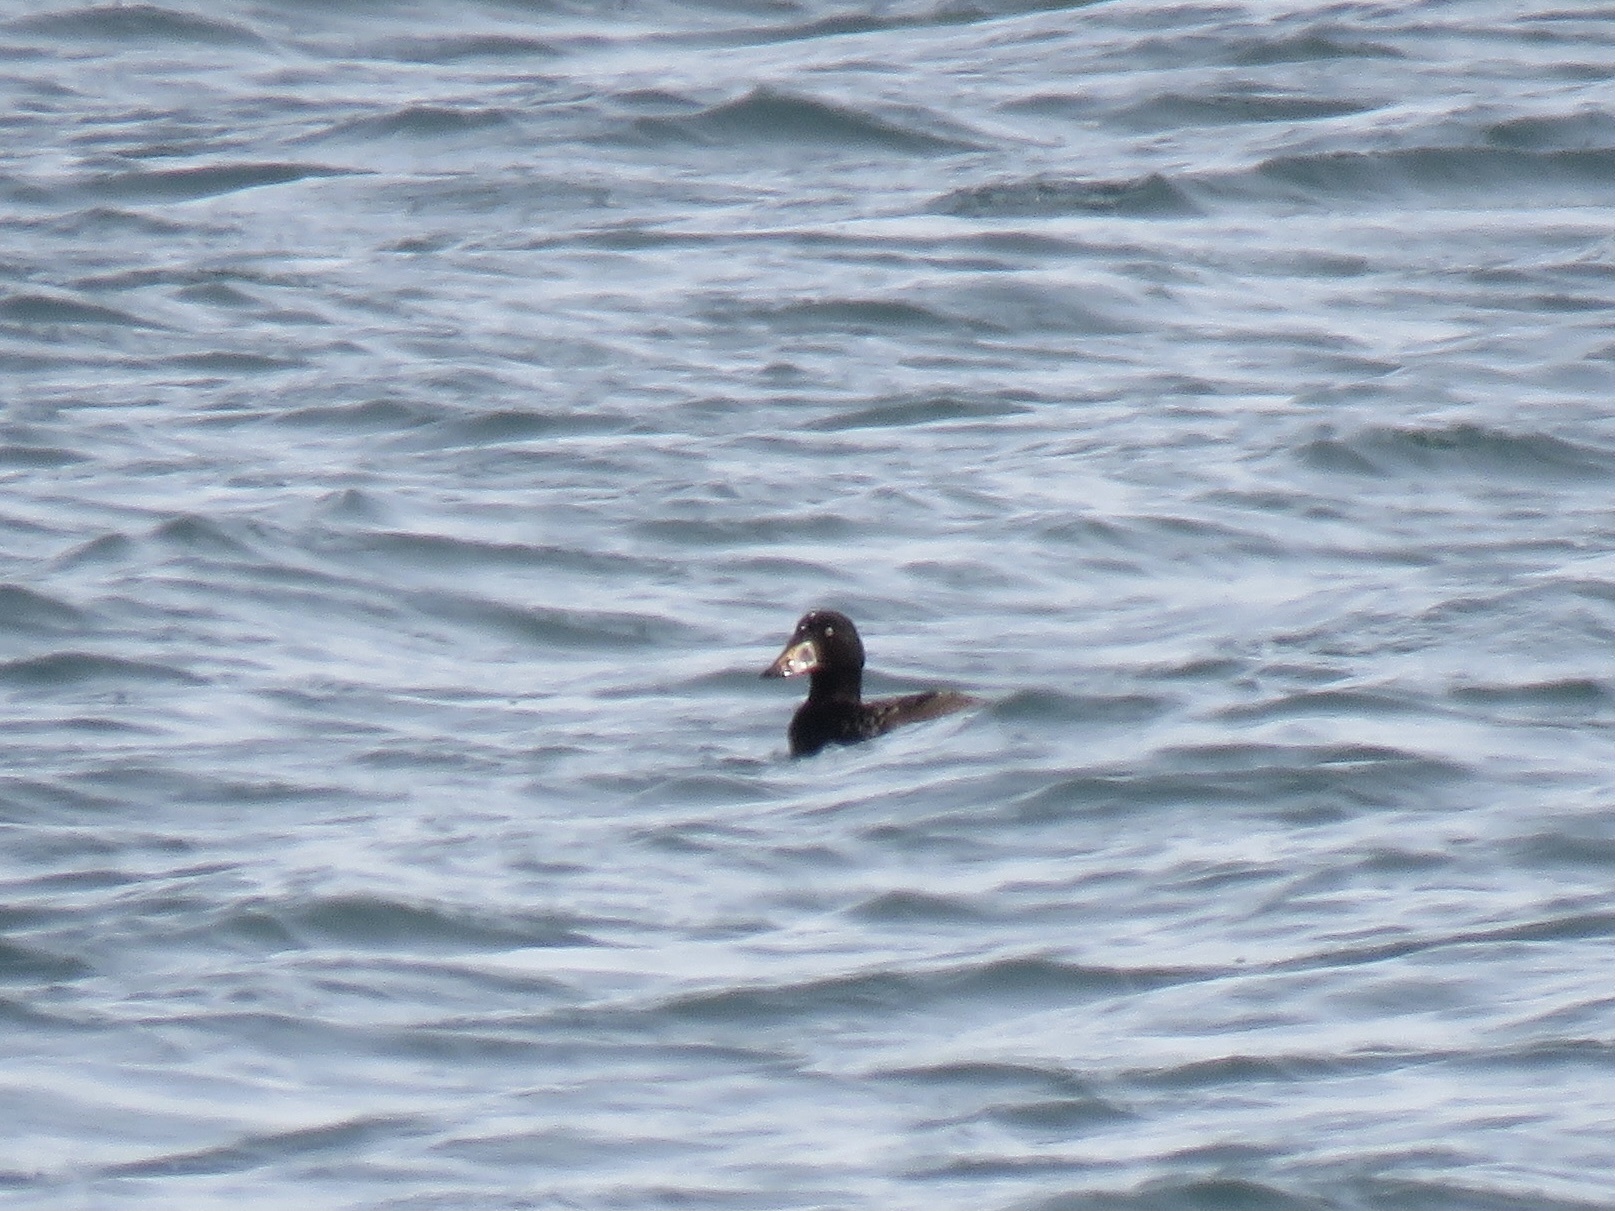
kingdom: Animalia
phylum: Chordata
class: Aves
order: Anseriformes
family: Anatidae
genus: Melanitta
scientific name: Melanitta perspicillata
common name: Surf scoter
